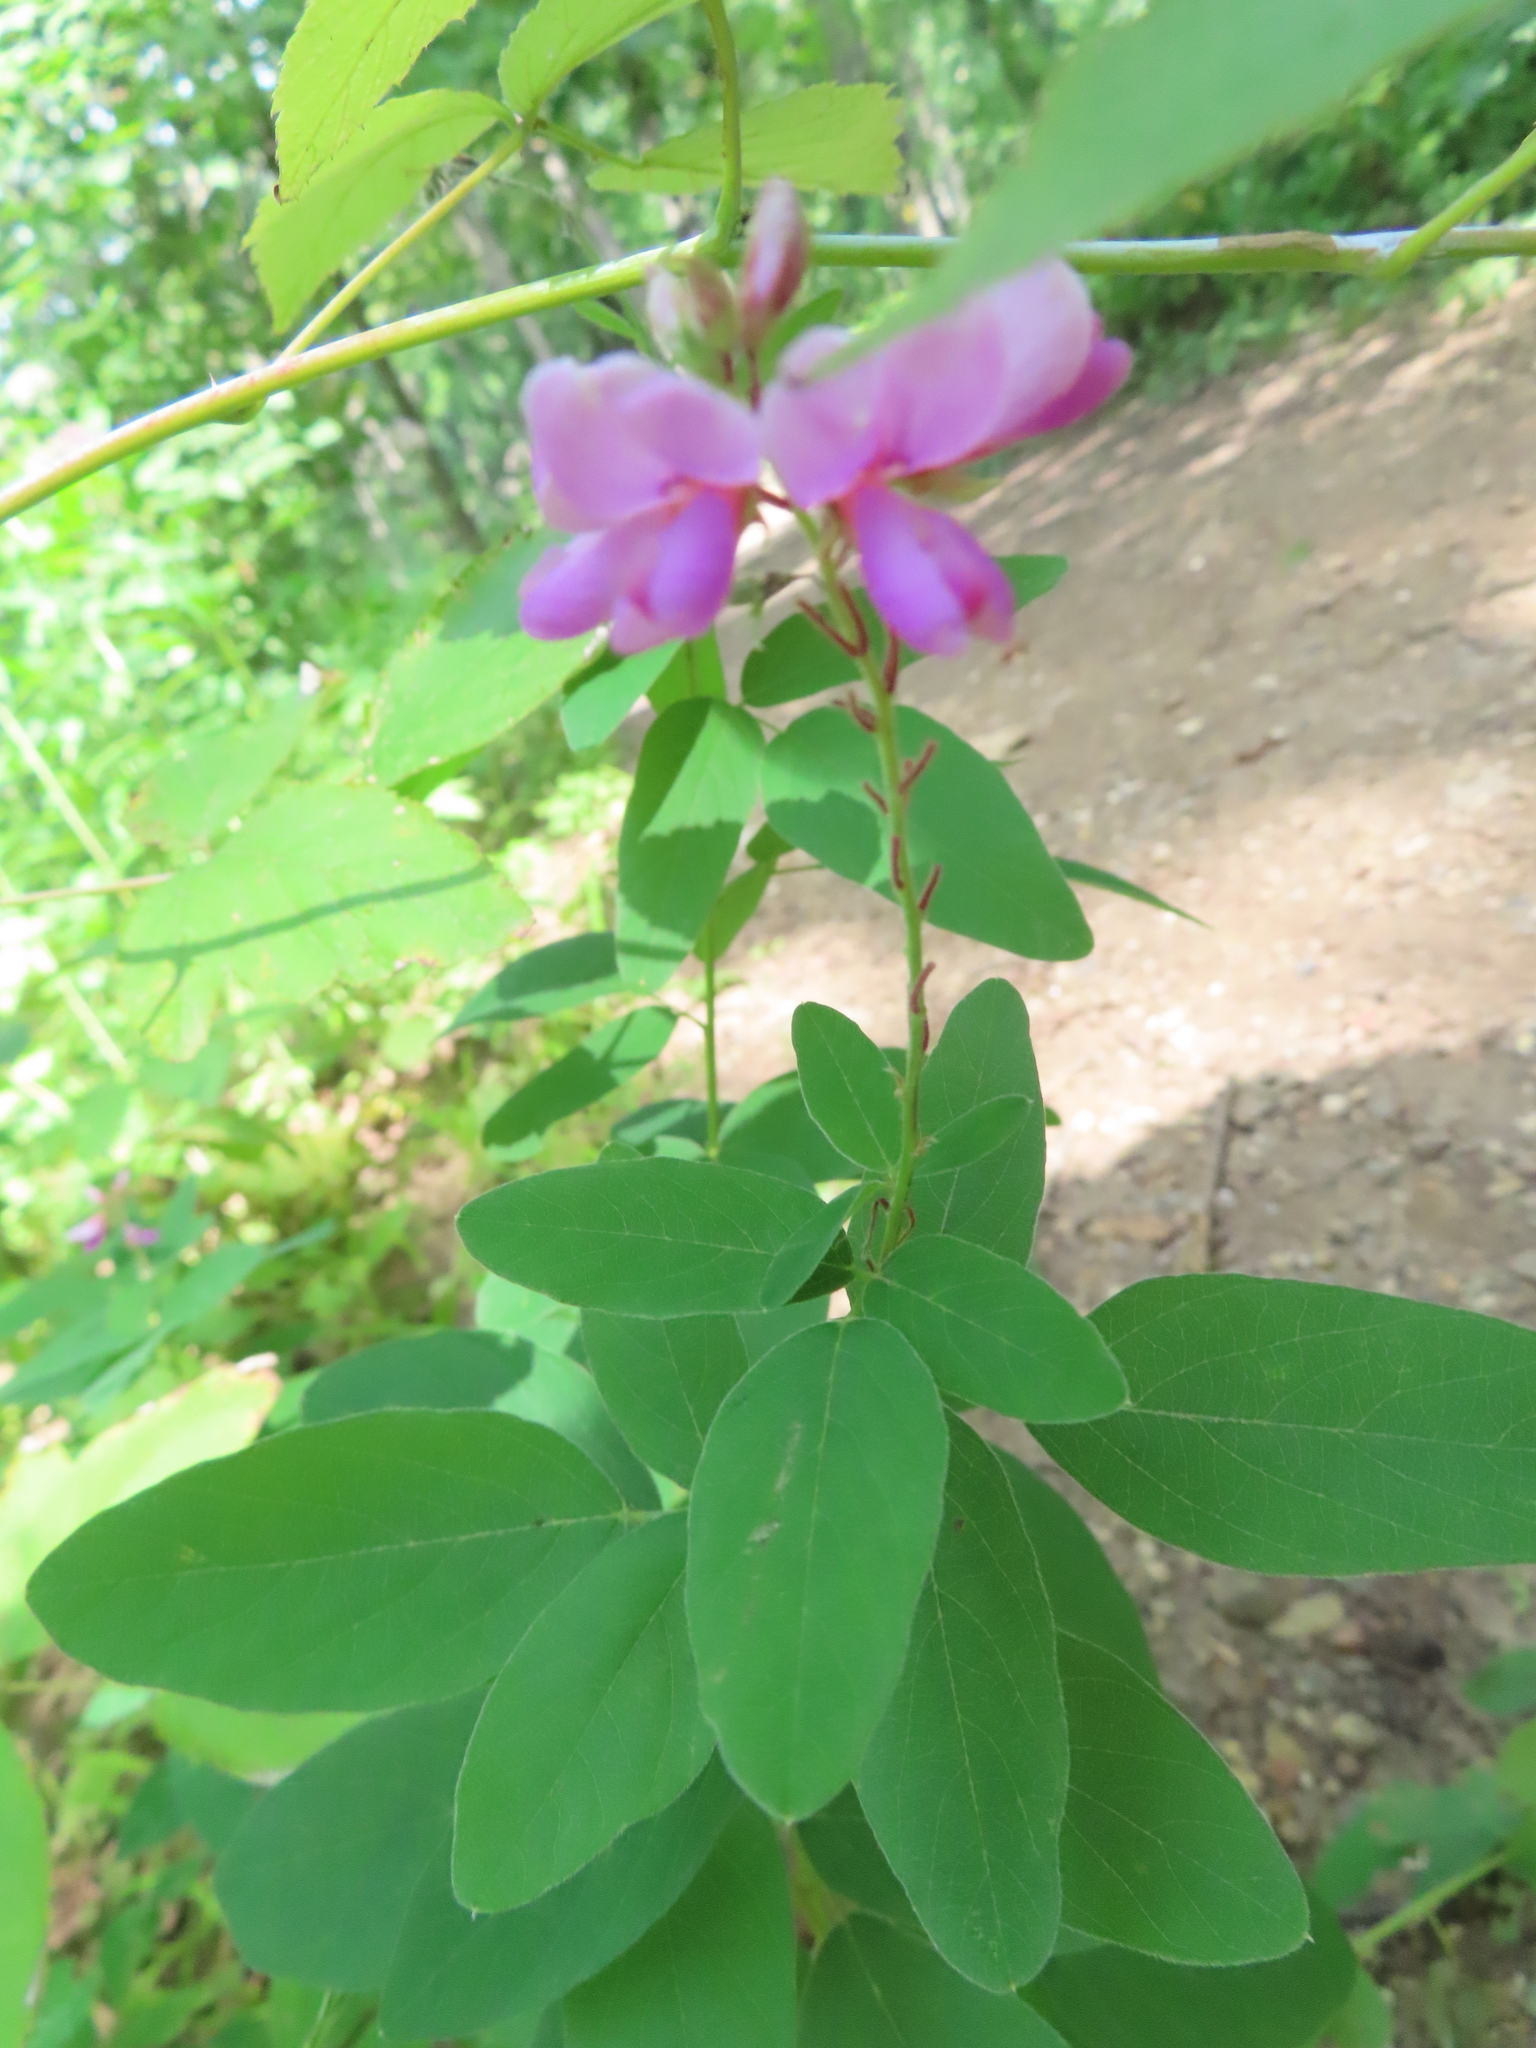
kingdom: Plantae
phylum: Tracheophyta
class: Magnoliopsida
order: Fabales
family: Fabaceae
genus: Desmodium
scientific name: Desmodium canadense
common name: Canada tick-trefoil
